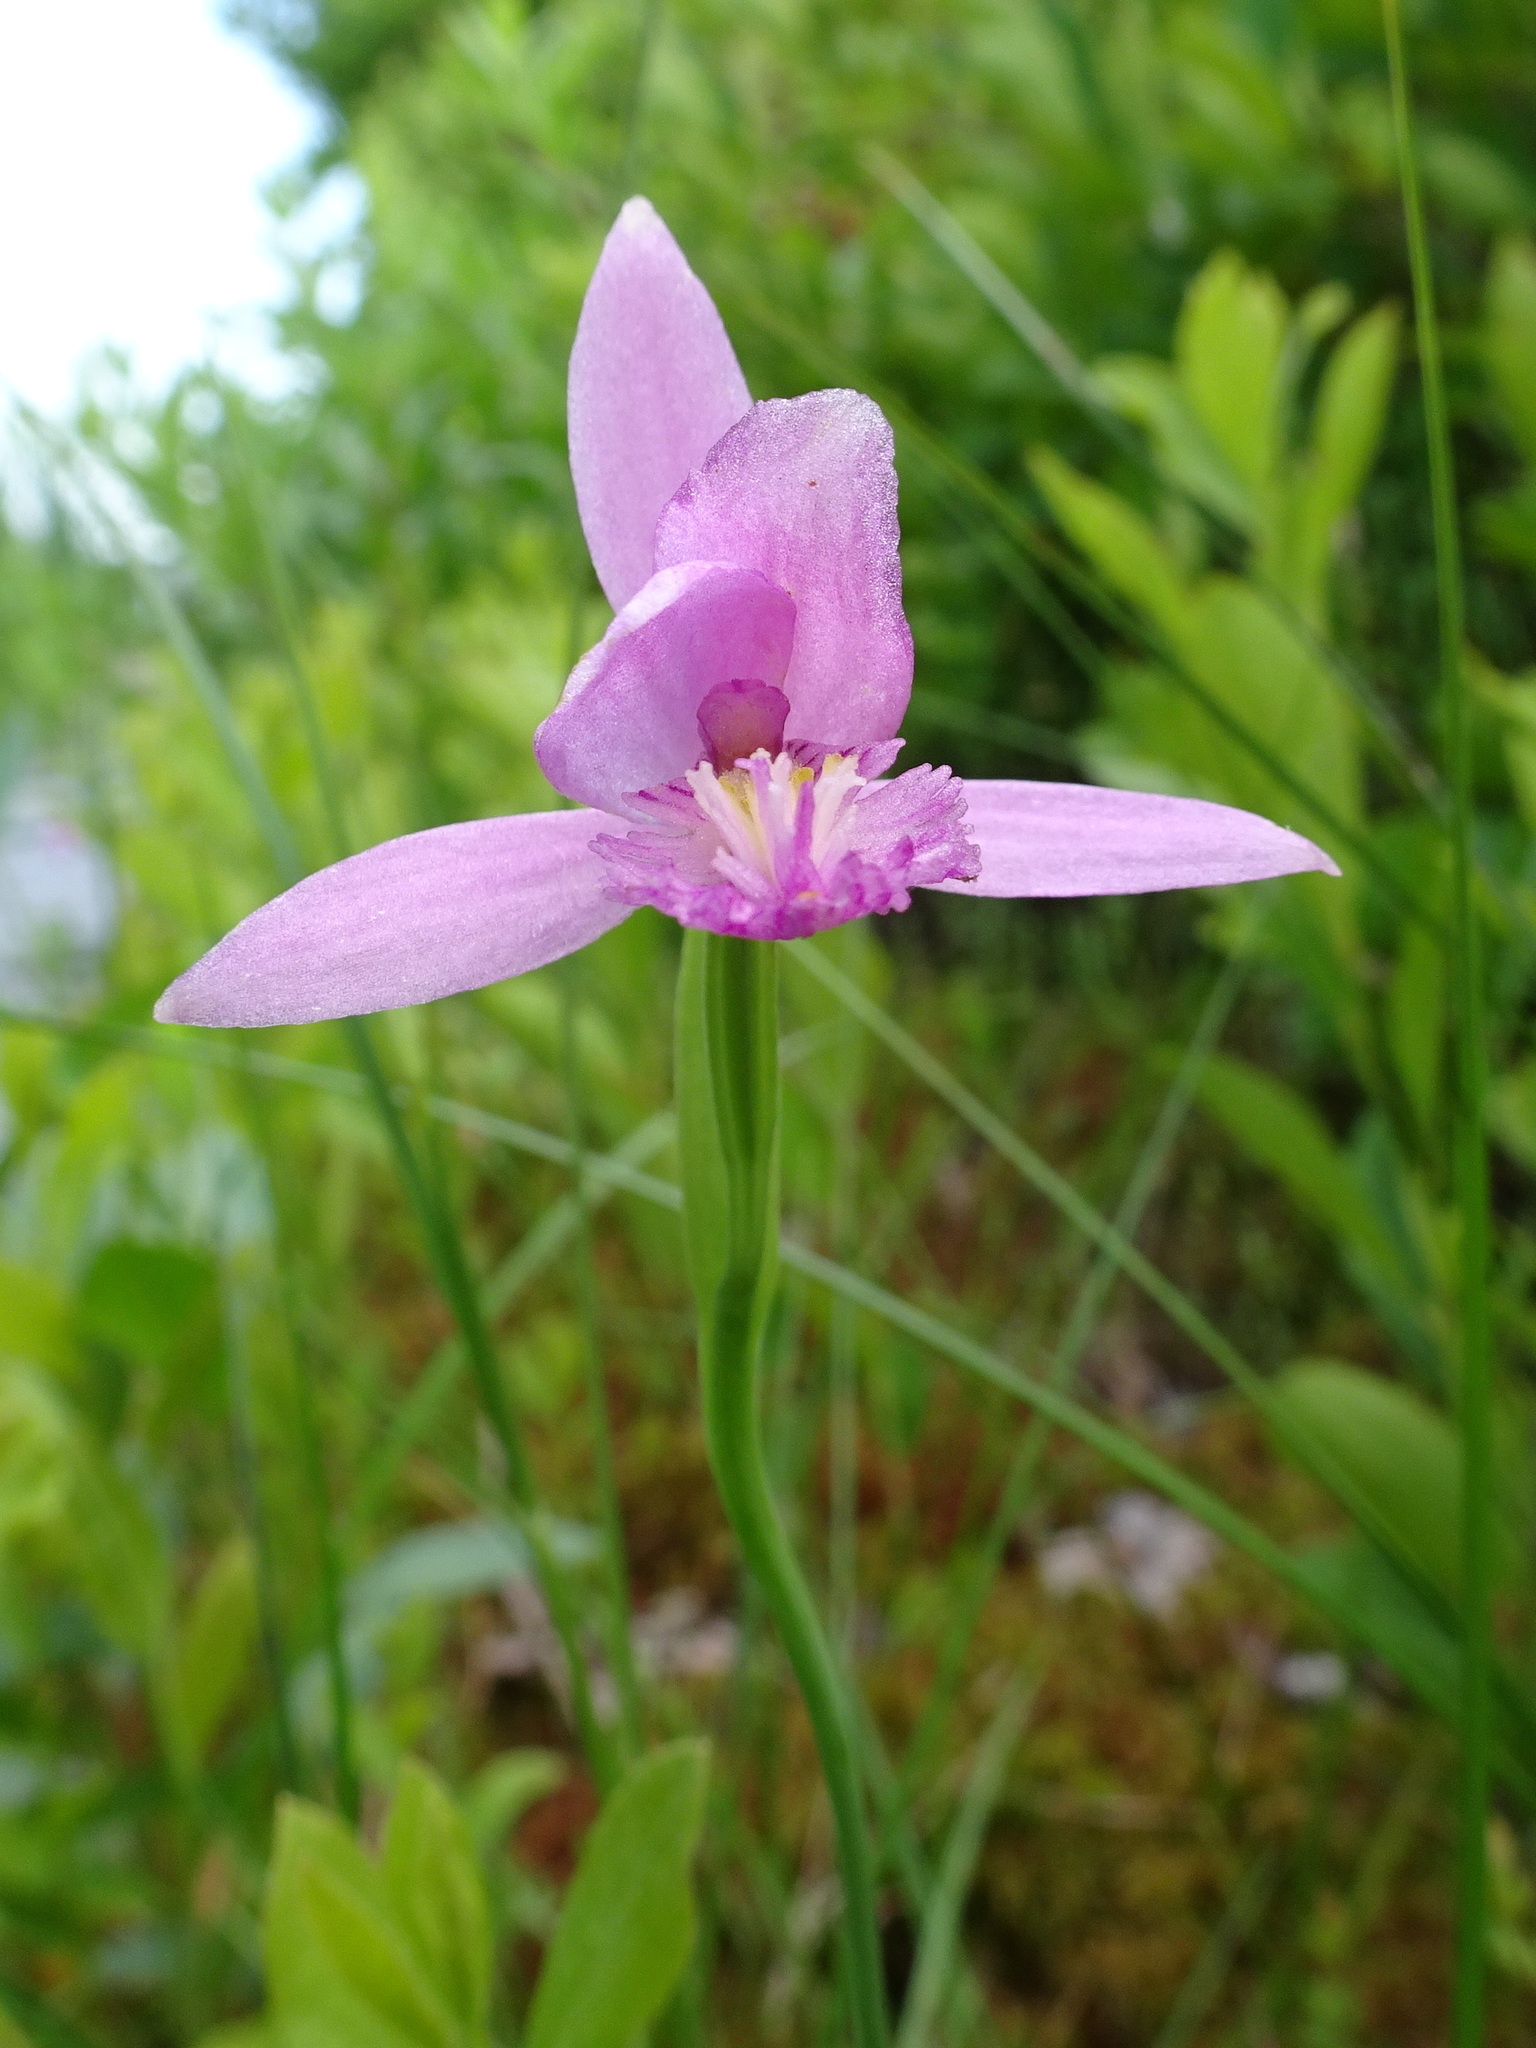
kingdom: Plantae
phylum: Tracheophyta
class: Liliopsida
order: Asparagales
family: Orchidaceae
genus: Pogonia
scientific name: Pogonia ophioglossoides
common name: Rose pogonia
